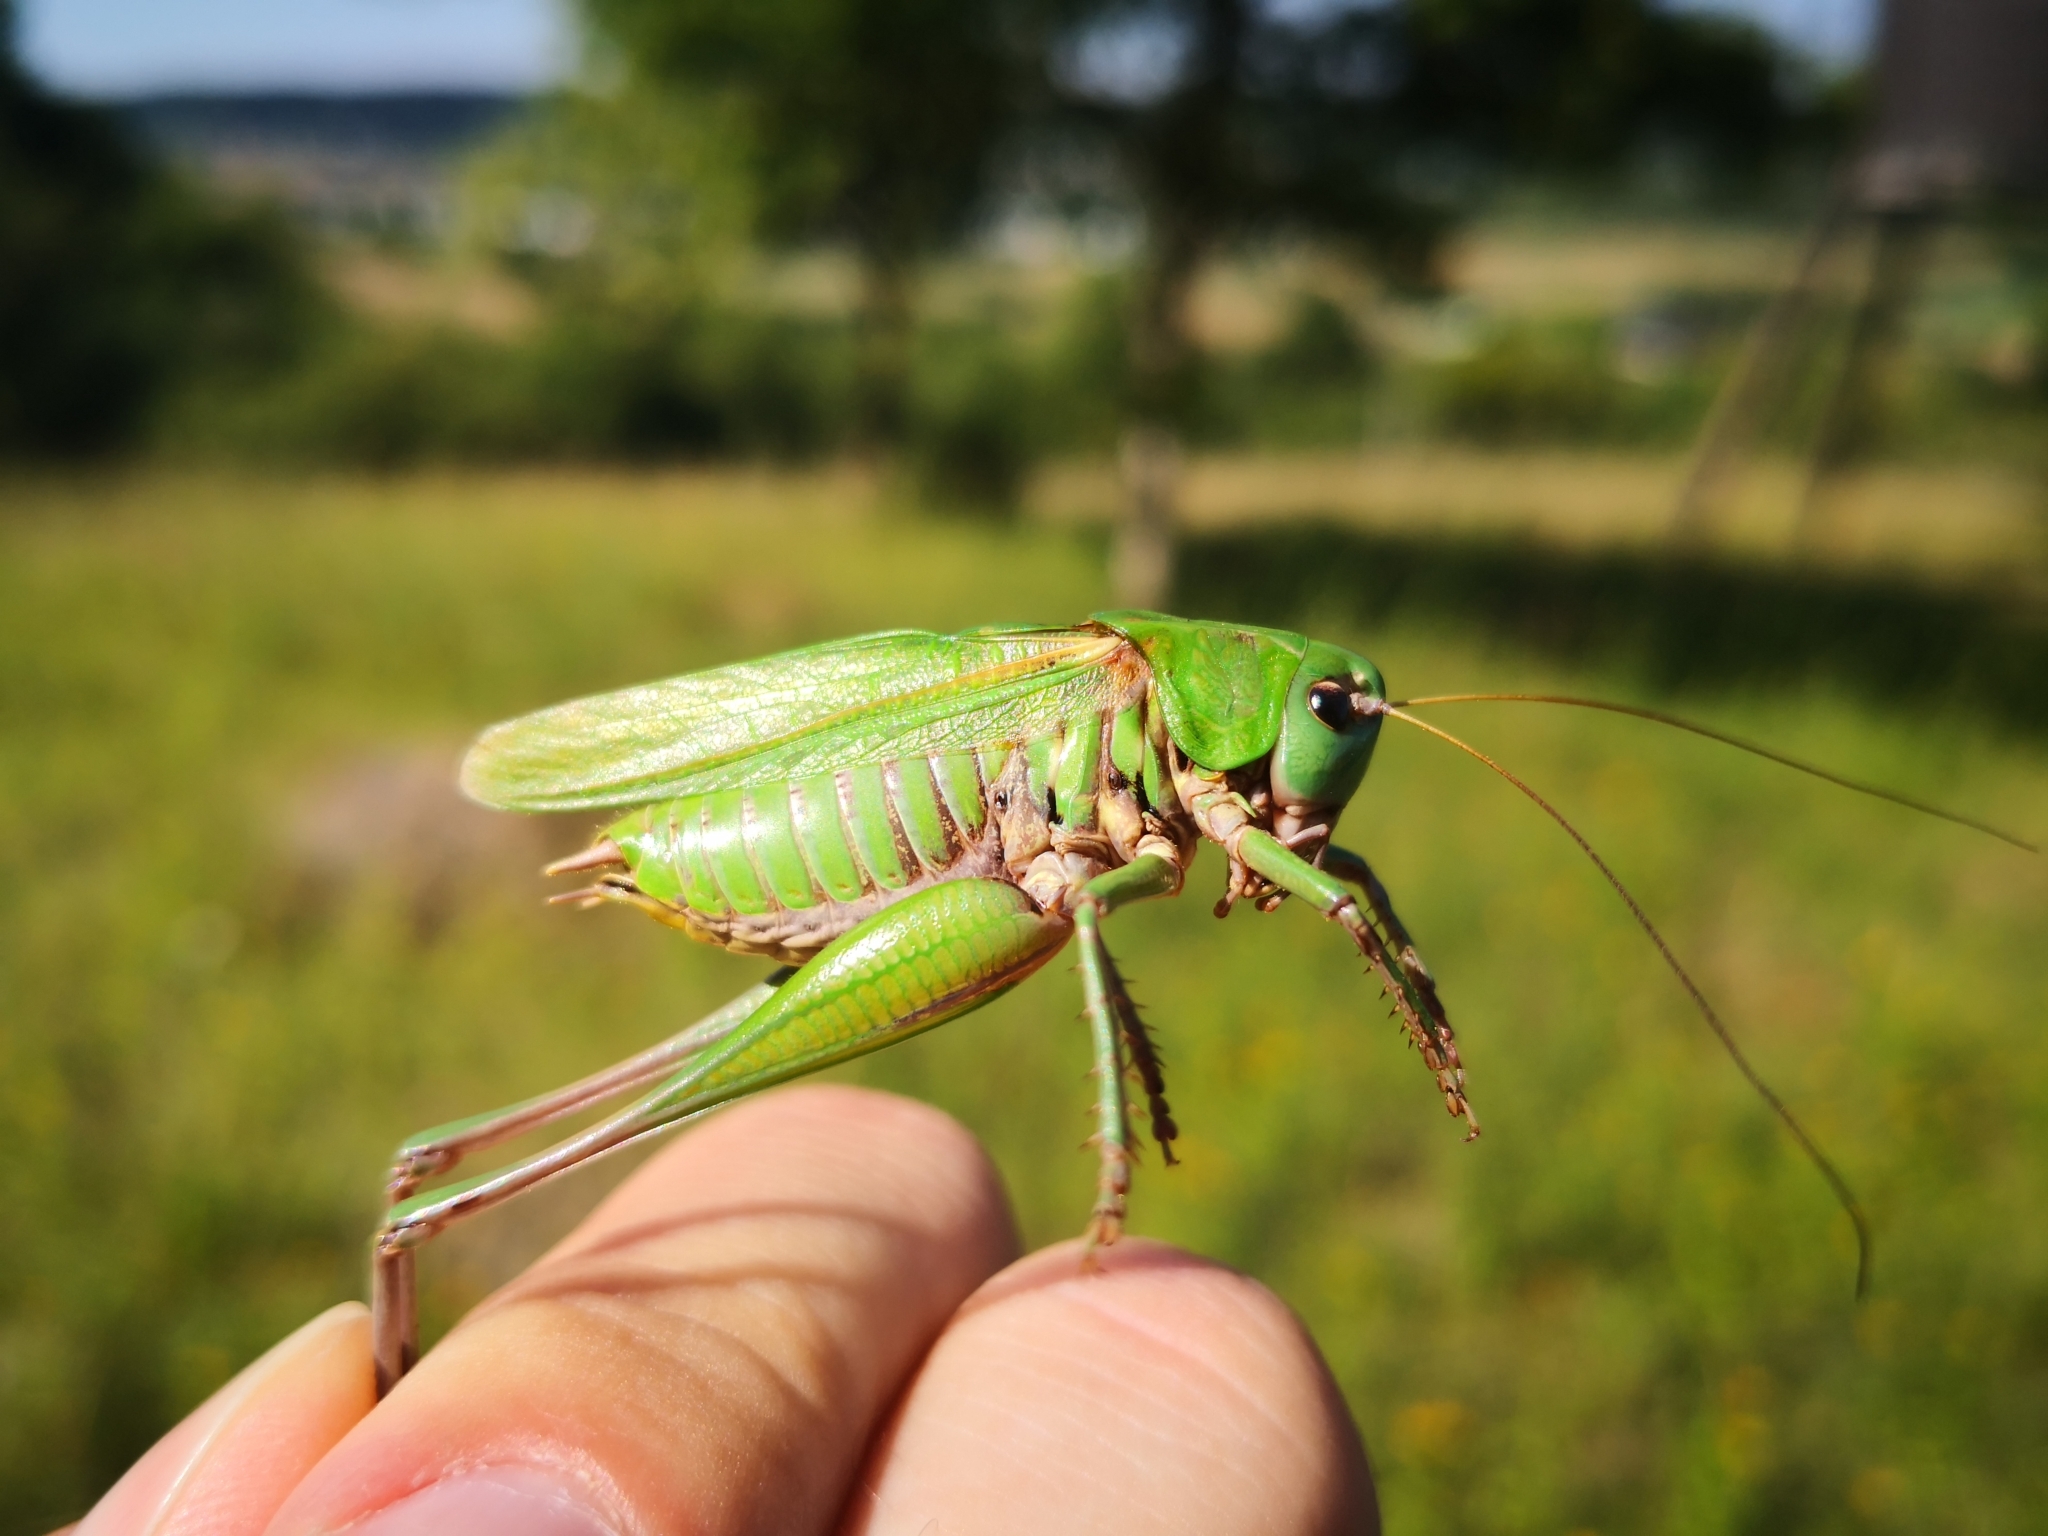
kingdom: Animalia
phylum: Arthropoda
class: Insecta
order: Orthoptera
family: Tettigoniidae
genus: Decticus
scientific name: Decticus verrucivorus
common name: Wart-biter
